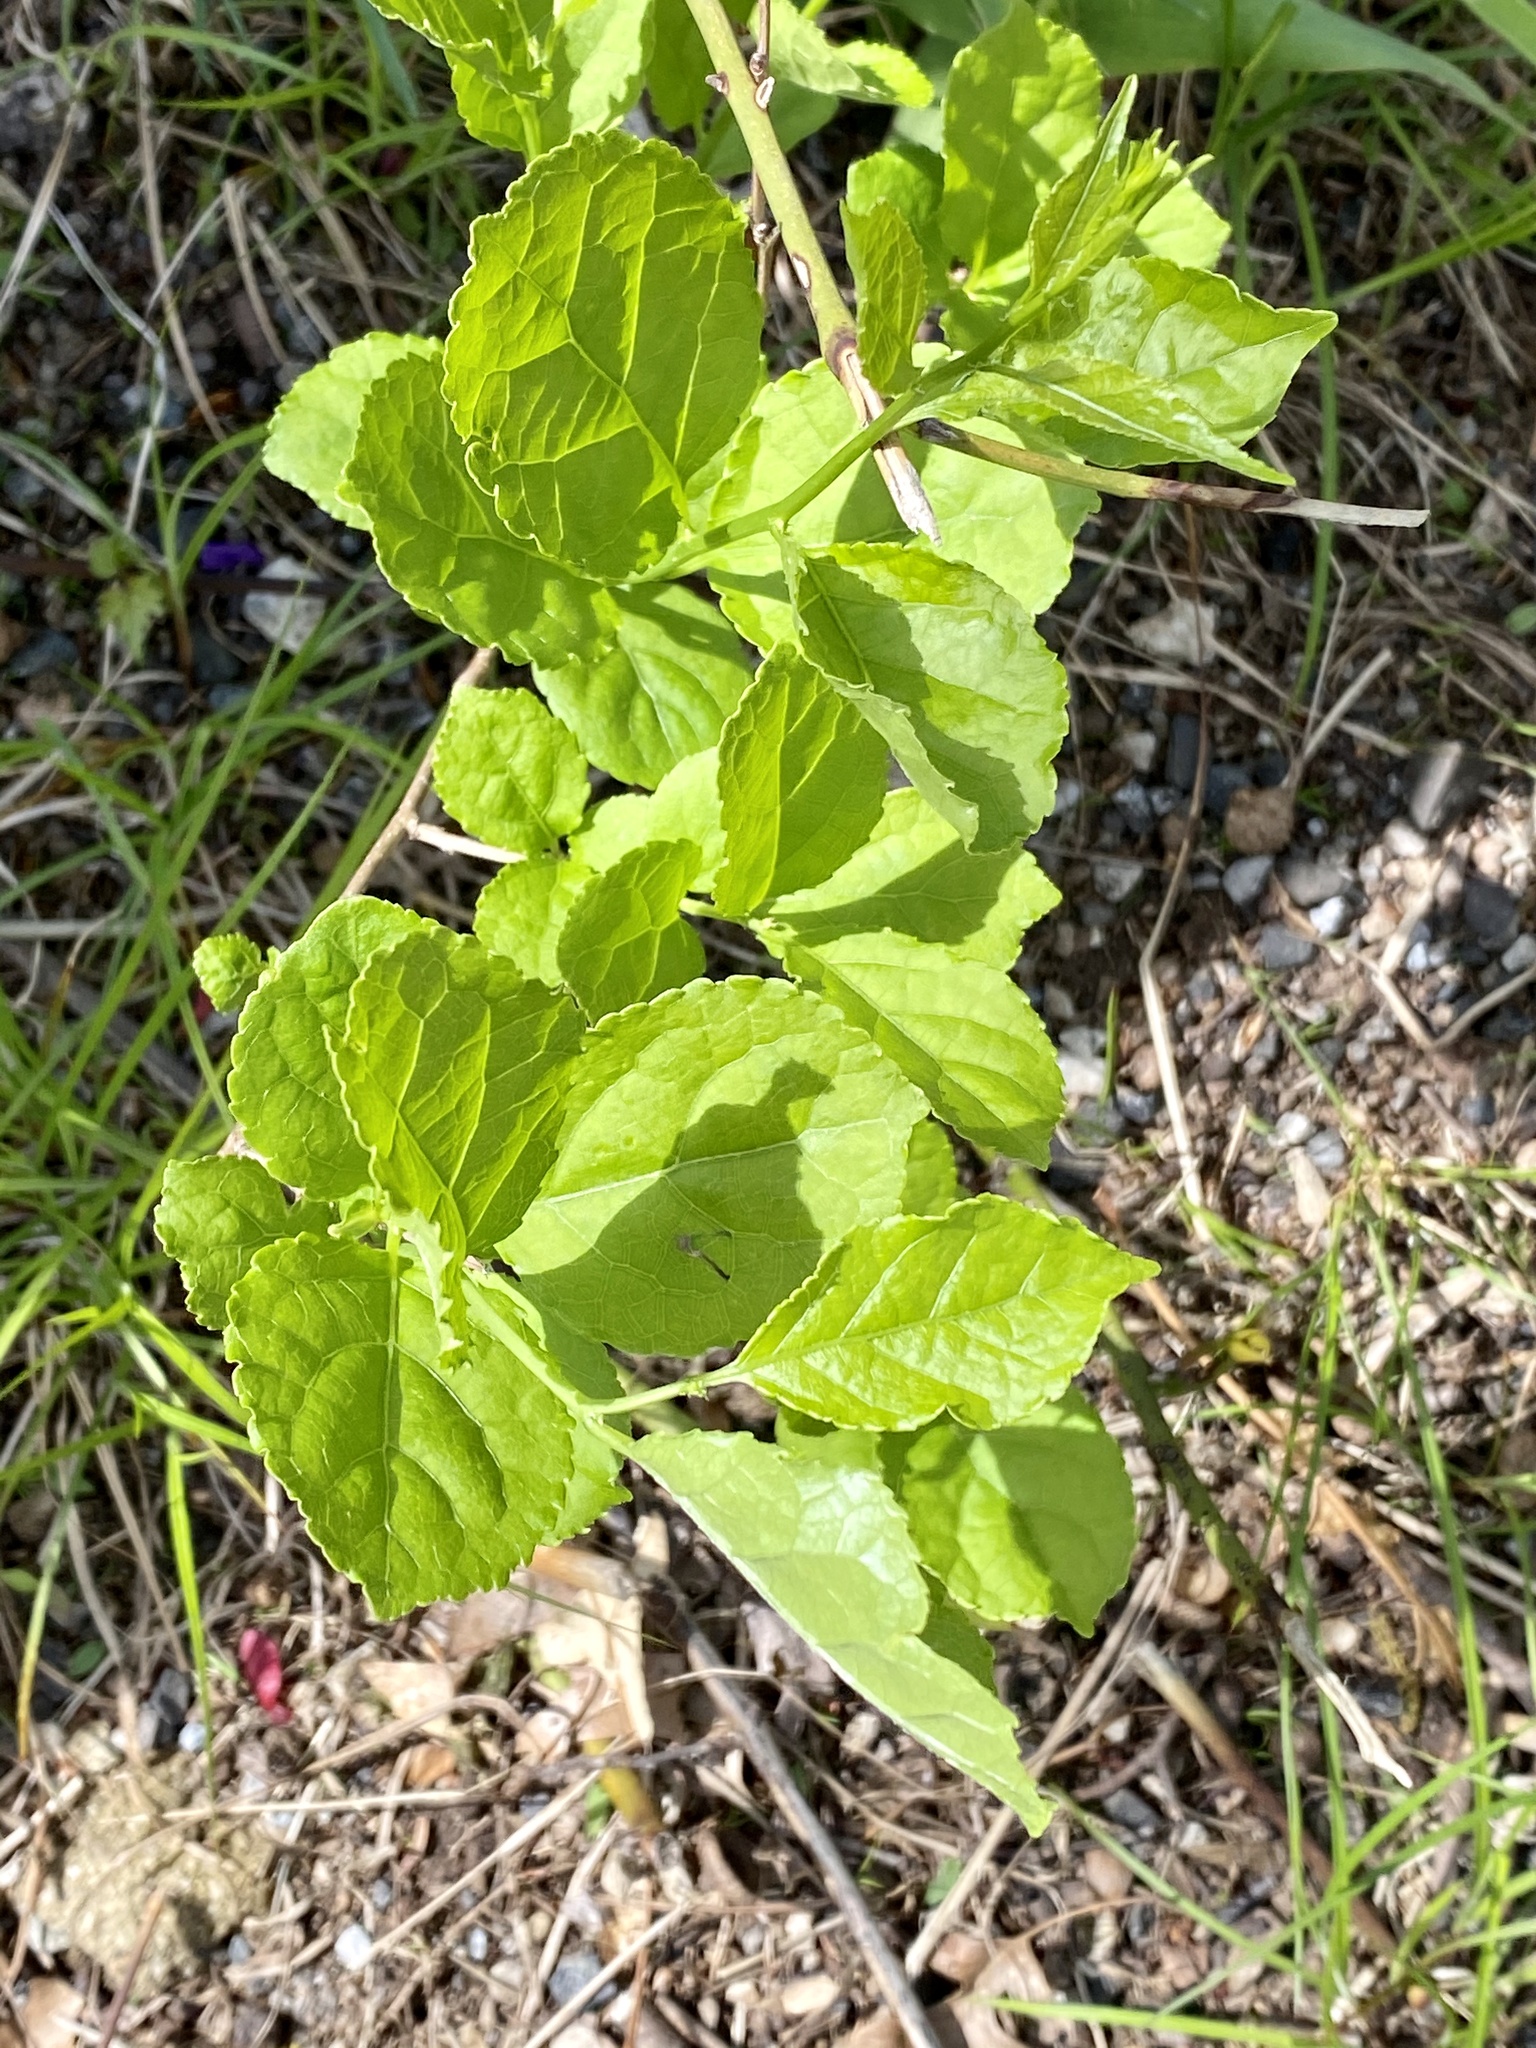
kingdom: Plantae
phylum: Tracheophyta
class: Magnoliopsida
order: Celastrales
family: Celastraceae
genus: Celastrus
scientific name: Celastrus orbiculatus
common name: Oriental bittersweet
